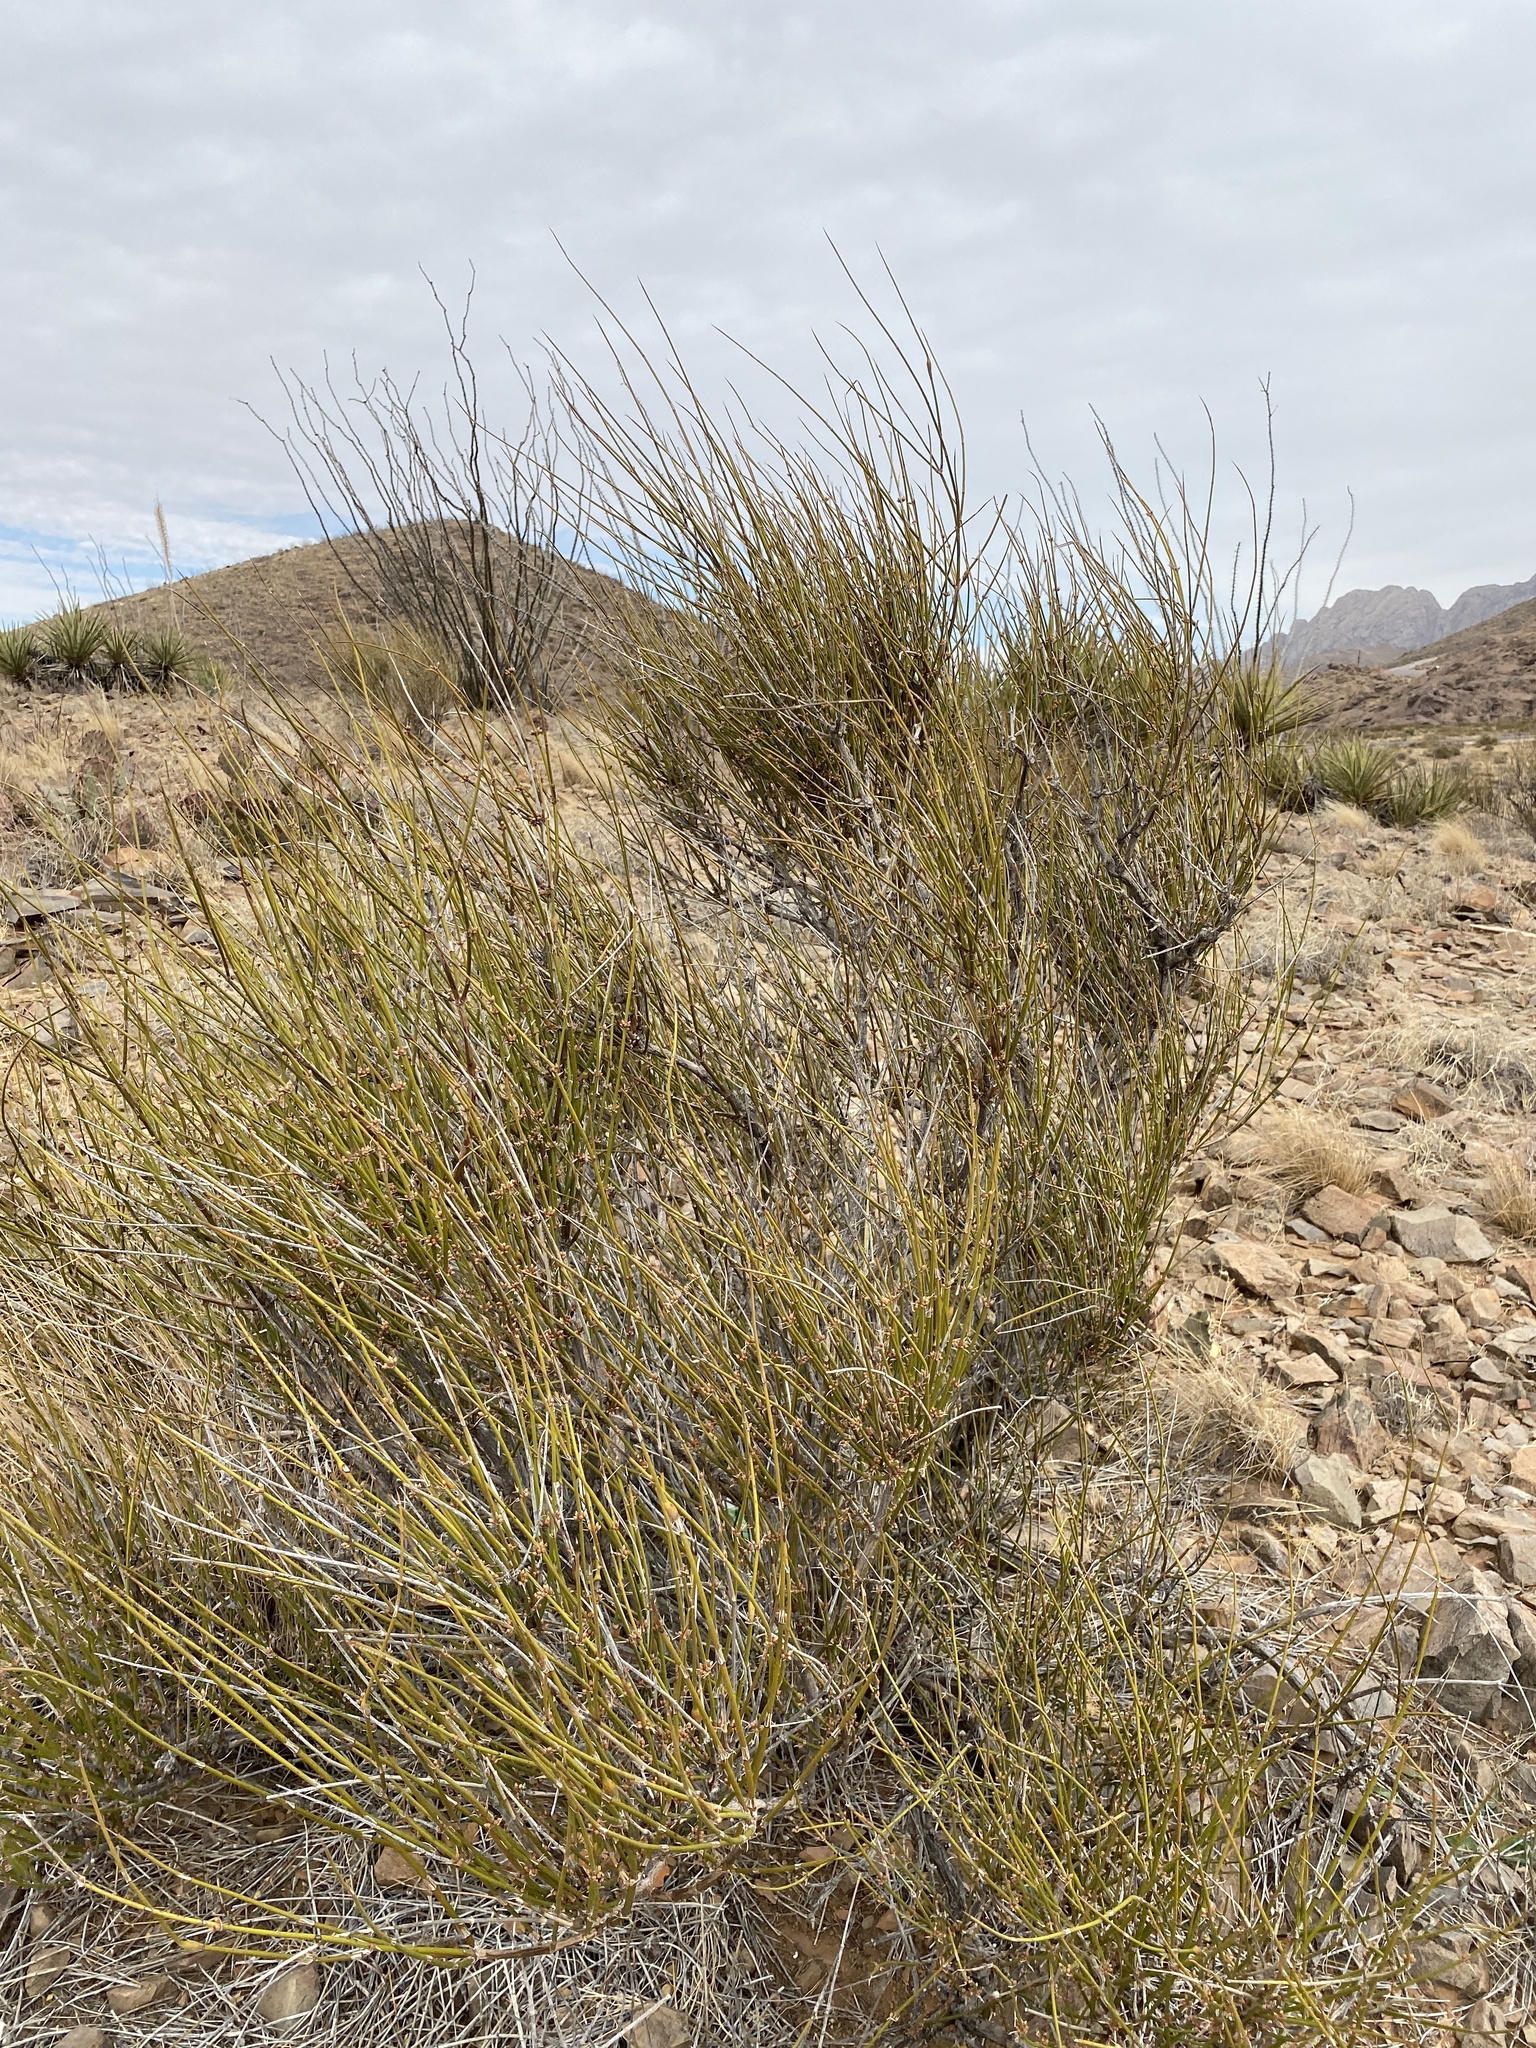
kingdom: Plantae
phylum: Tracheophyta
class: Gnetopsida
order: Ephedrales
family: Ephedraceae
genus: Ephedra
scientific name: Ephedra trifurca
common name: Mexican-tea
